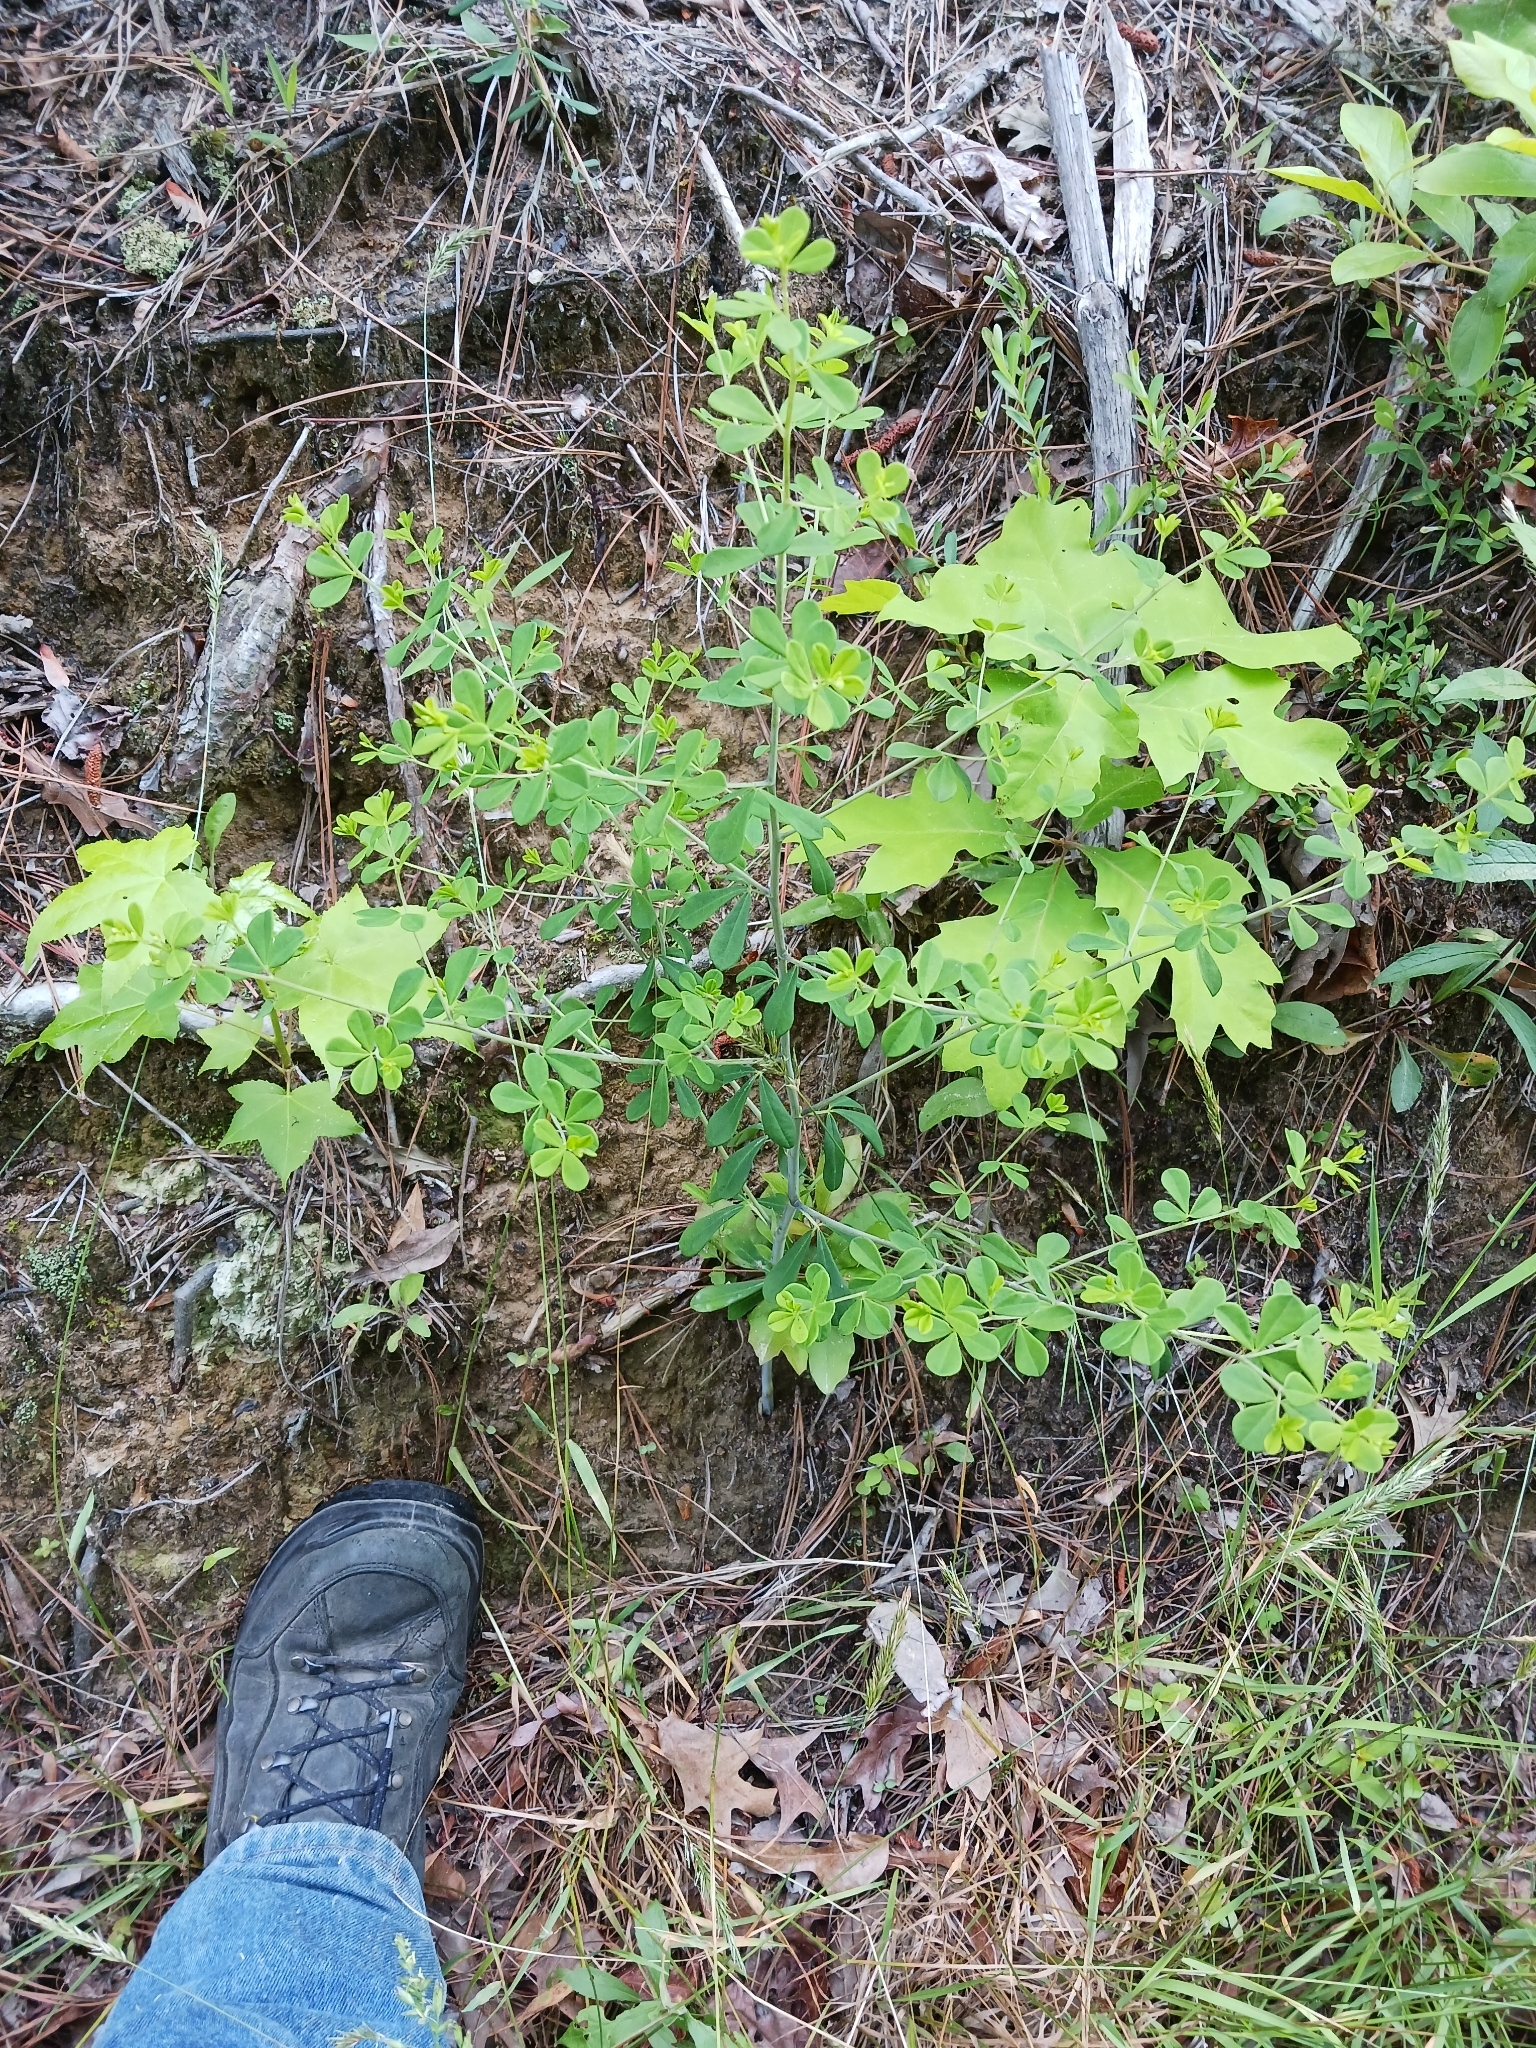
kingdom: Plantae
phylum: Tracheophyta
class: Magnoliopsida
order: Fabales
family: Fabaceae
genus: Baptisia
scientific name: Baptisia tinctoria
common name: Wild indigo
